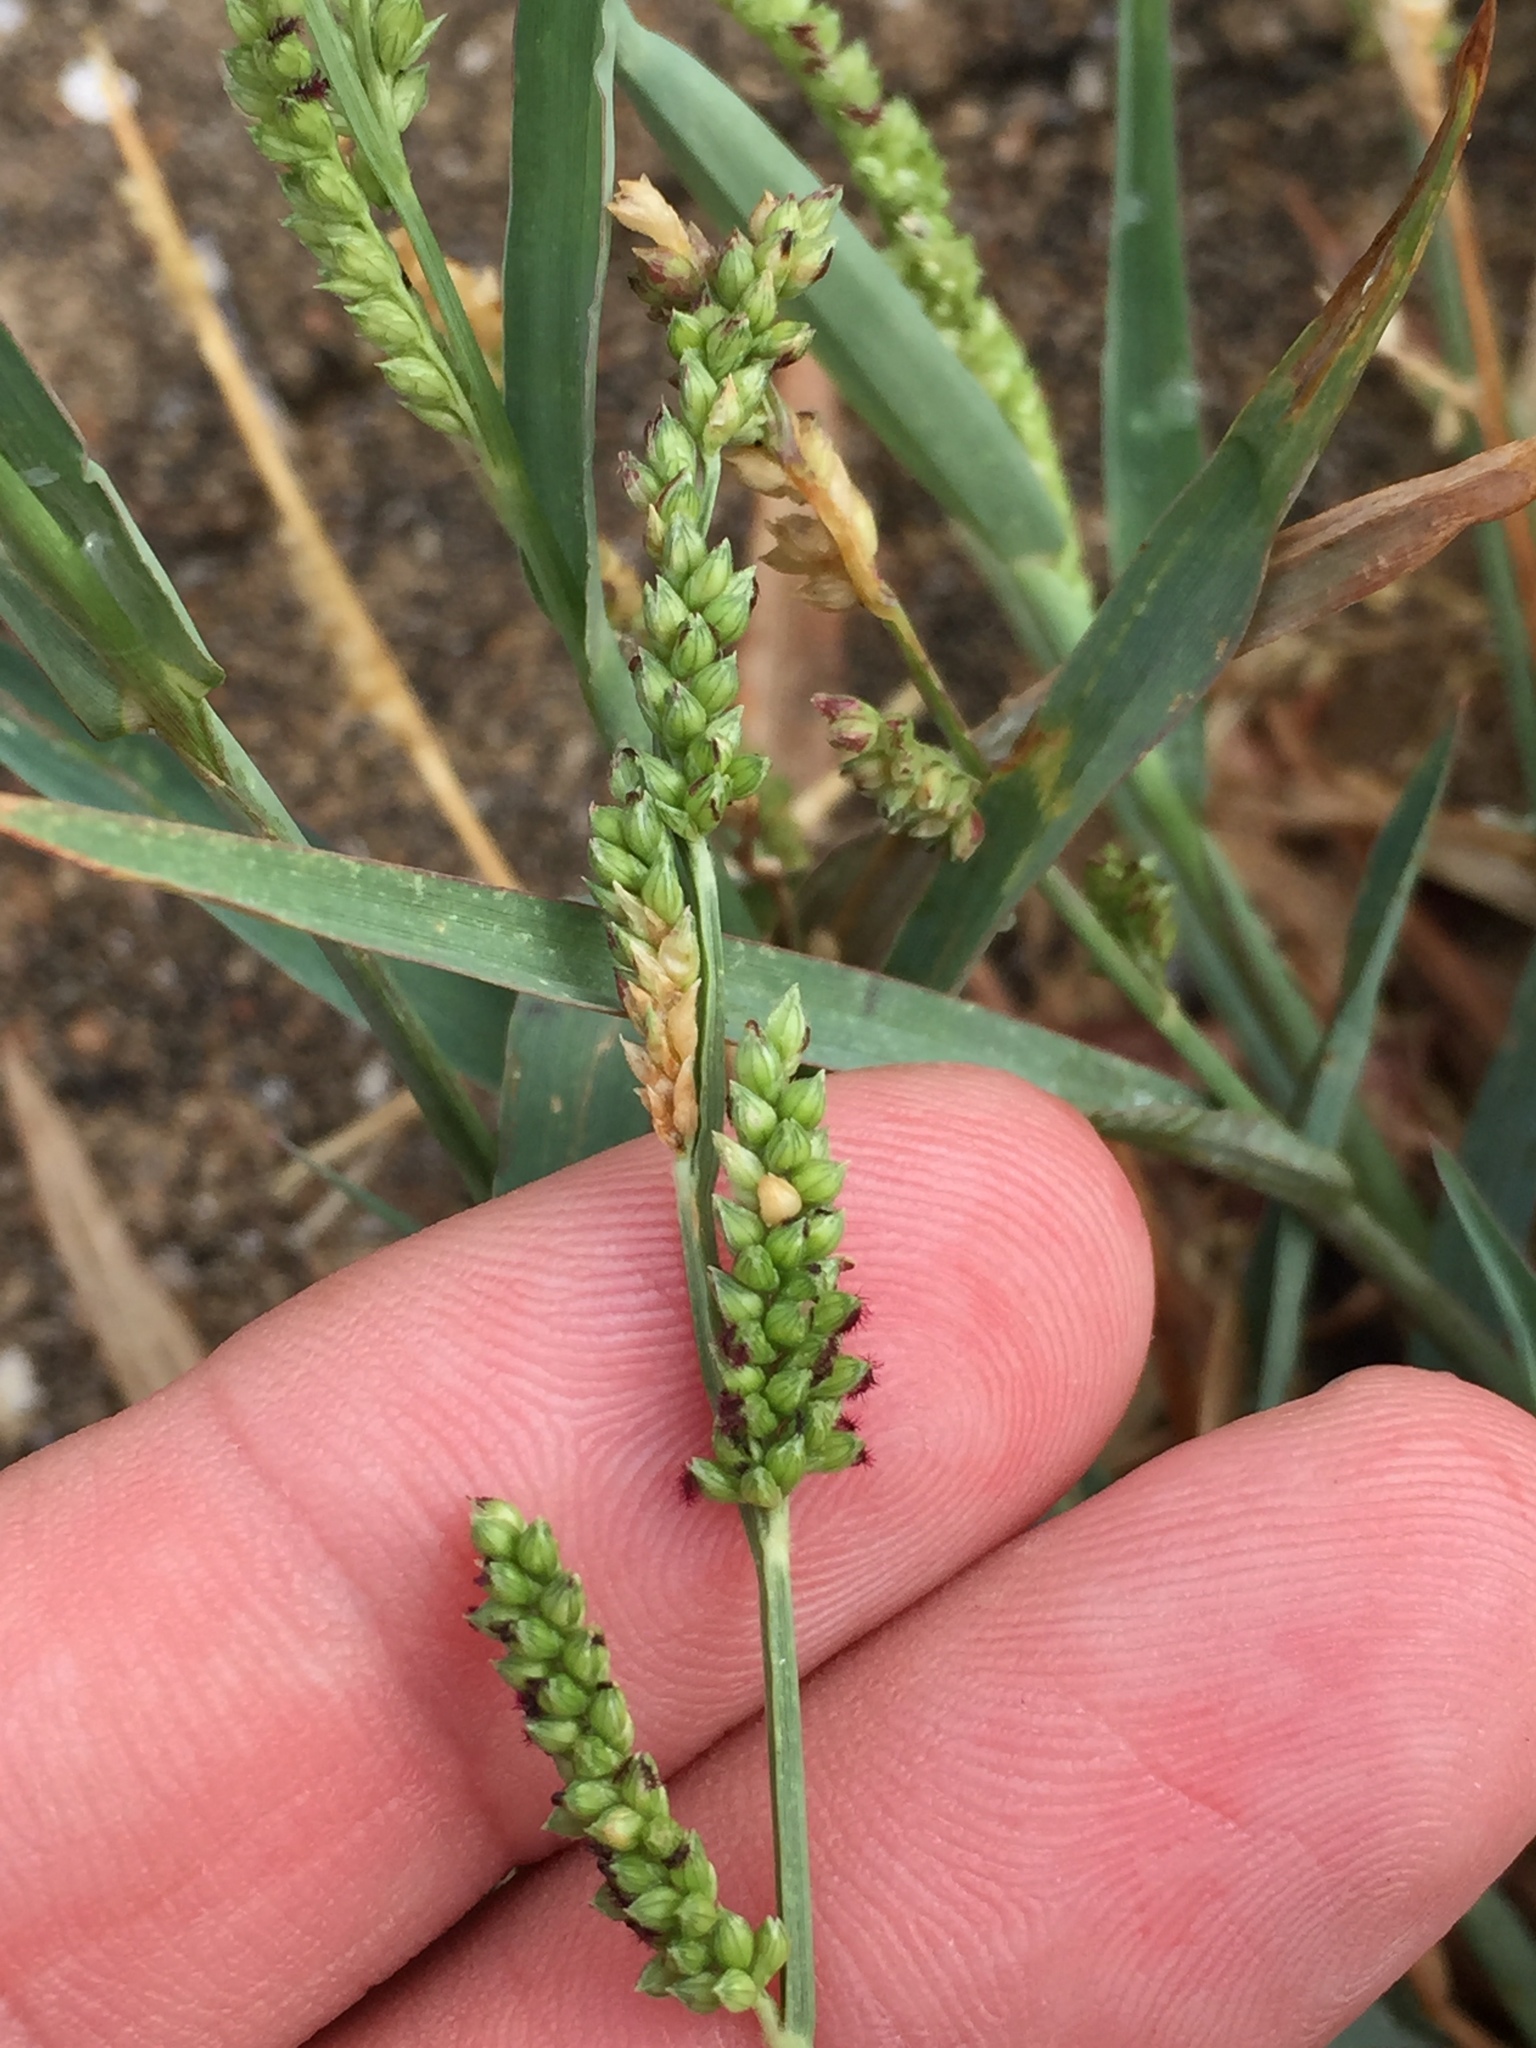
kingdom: Plantae
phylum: Tracheophyta
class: Liliopsida
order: Poales
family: Poaceae
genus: Echinochloa
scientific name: Echinochloa colonum
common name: Jungle rice
